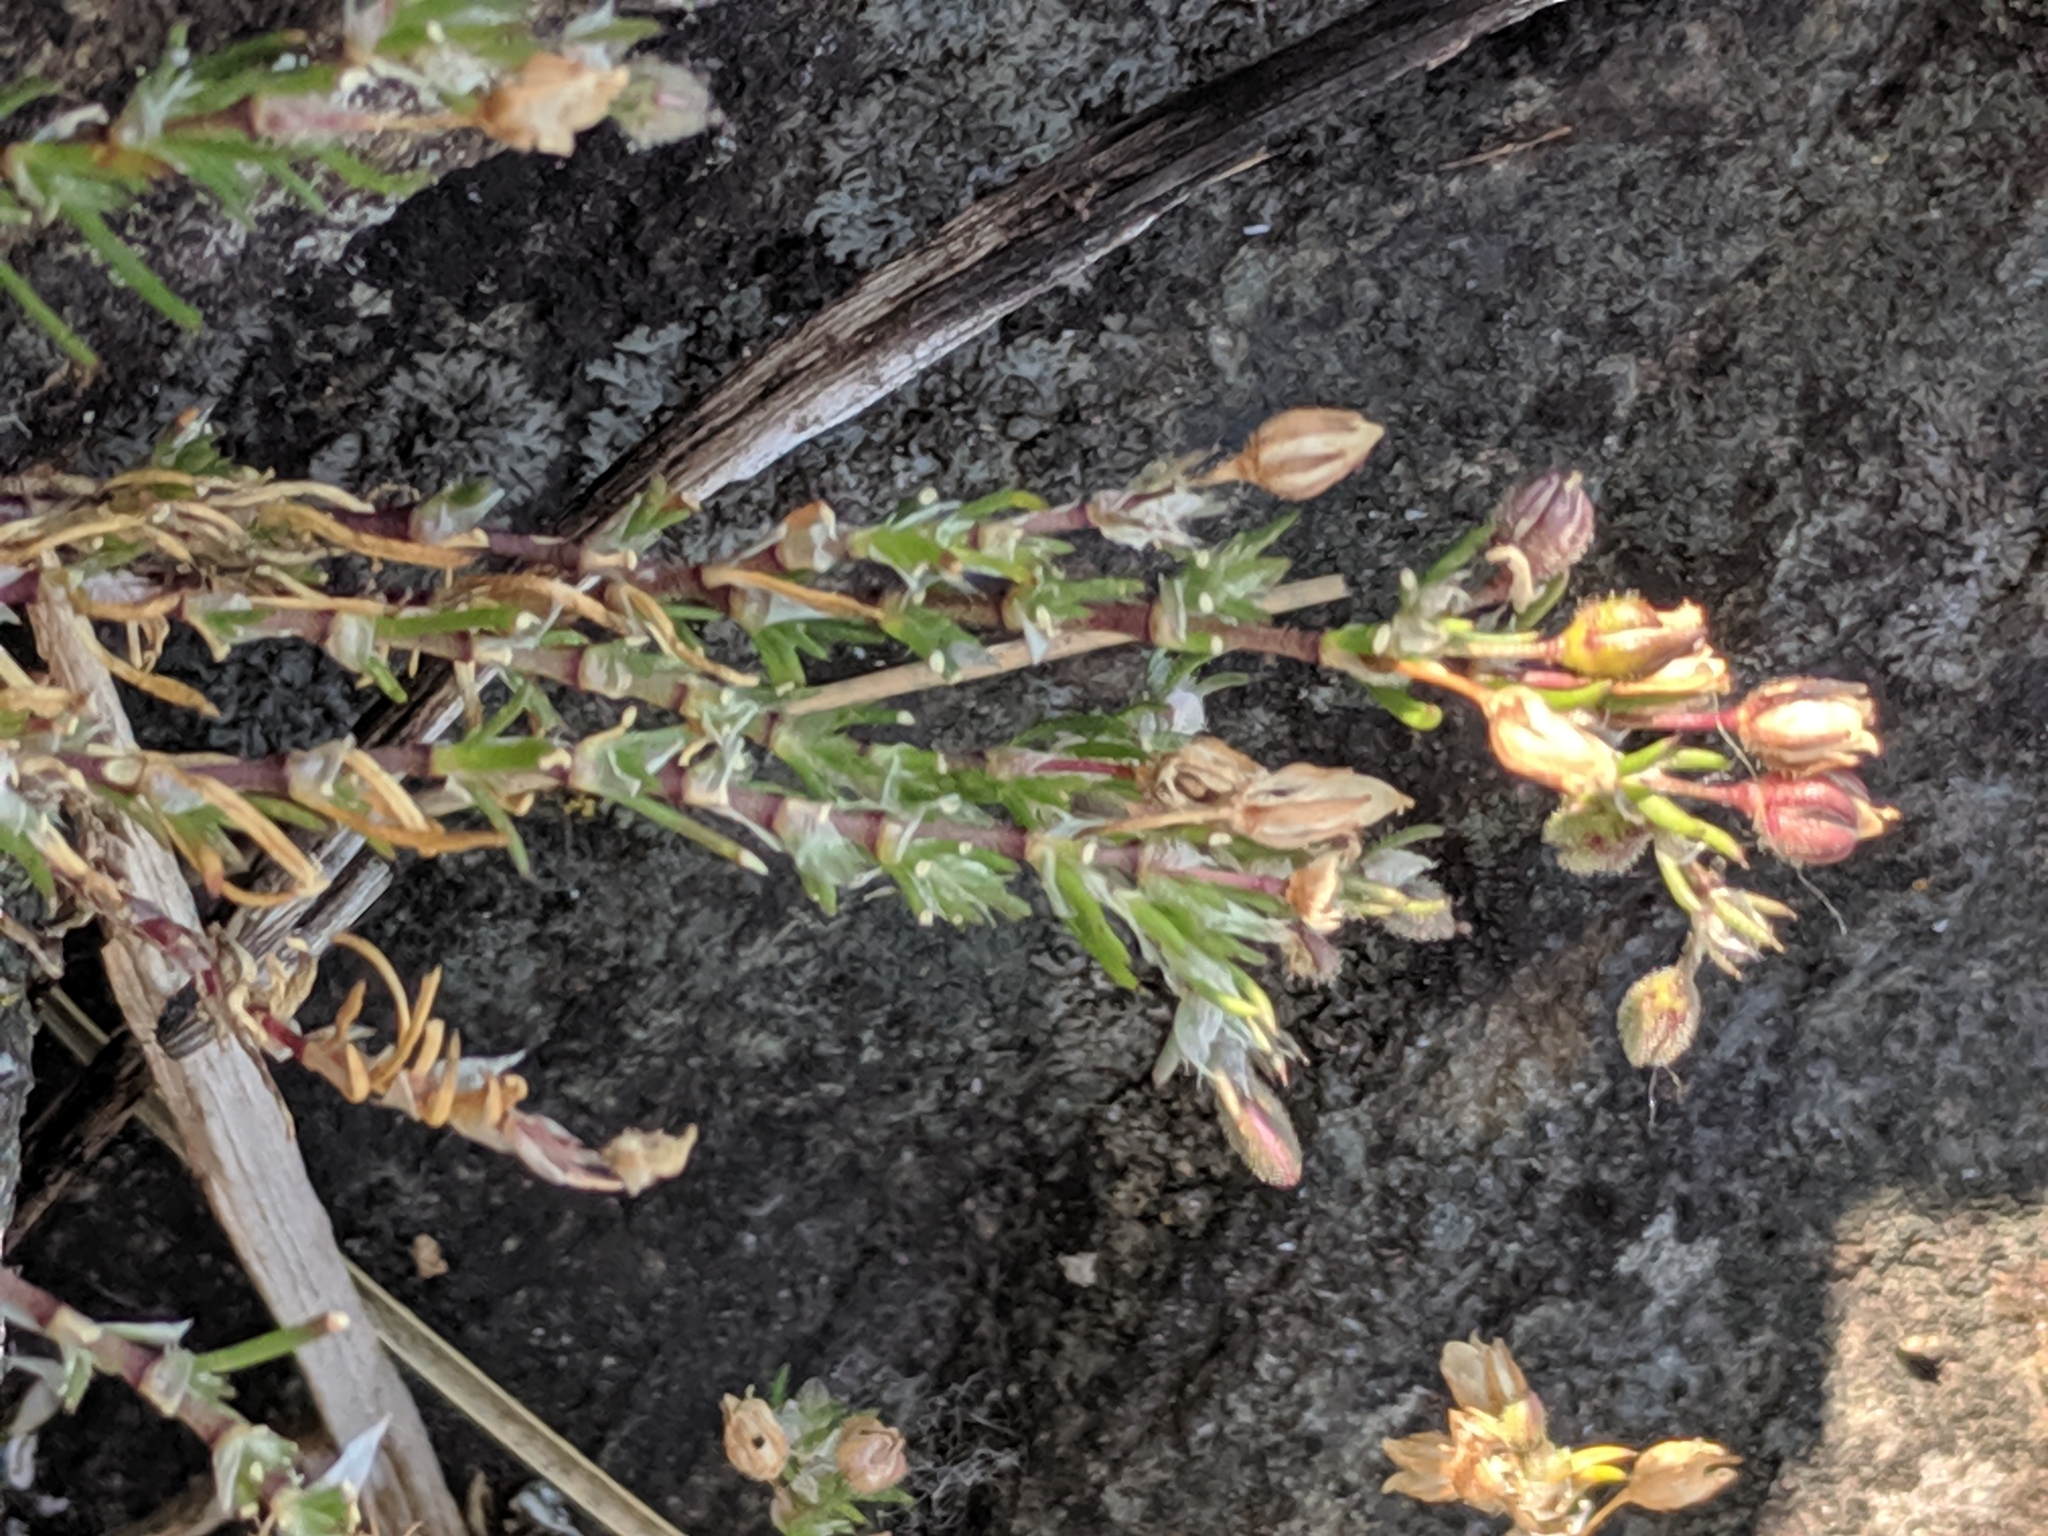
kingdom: Plantae
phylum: Tracheophyta
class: Magnoliopsida
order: Caryophyllales
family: Caryophyllaceae
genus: Spergularia
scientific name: Spergularia rubra
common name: Red sand-spurrey
